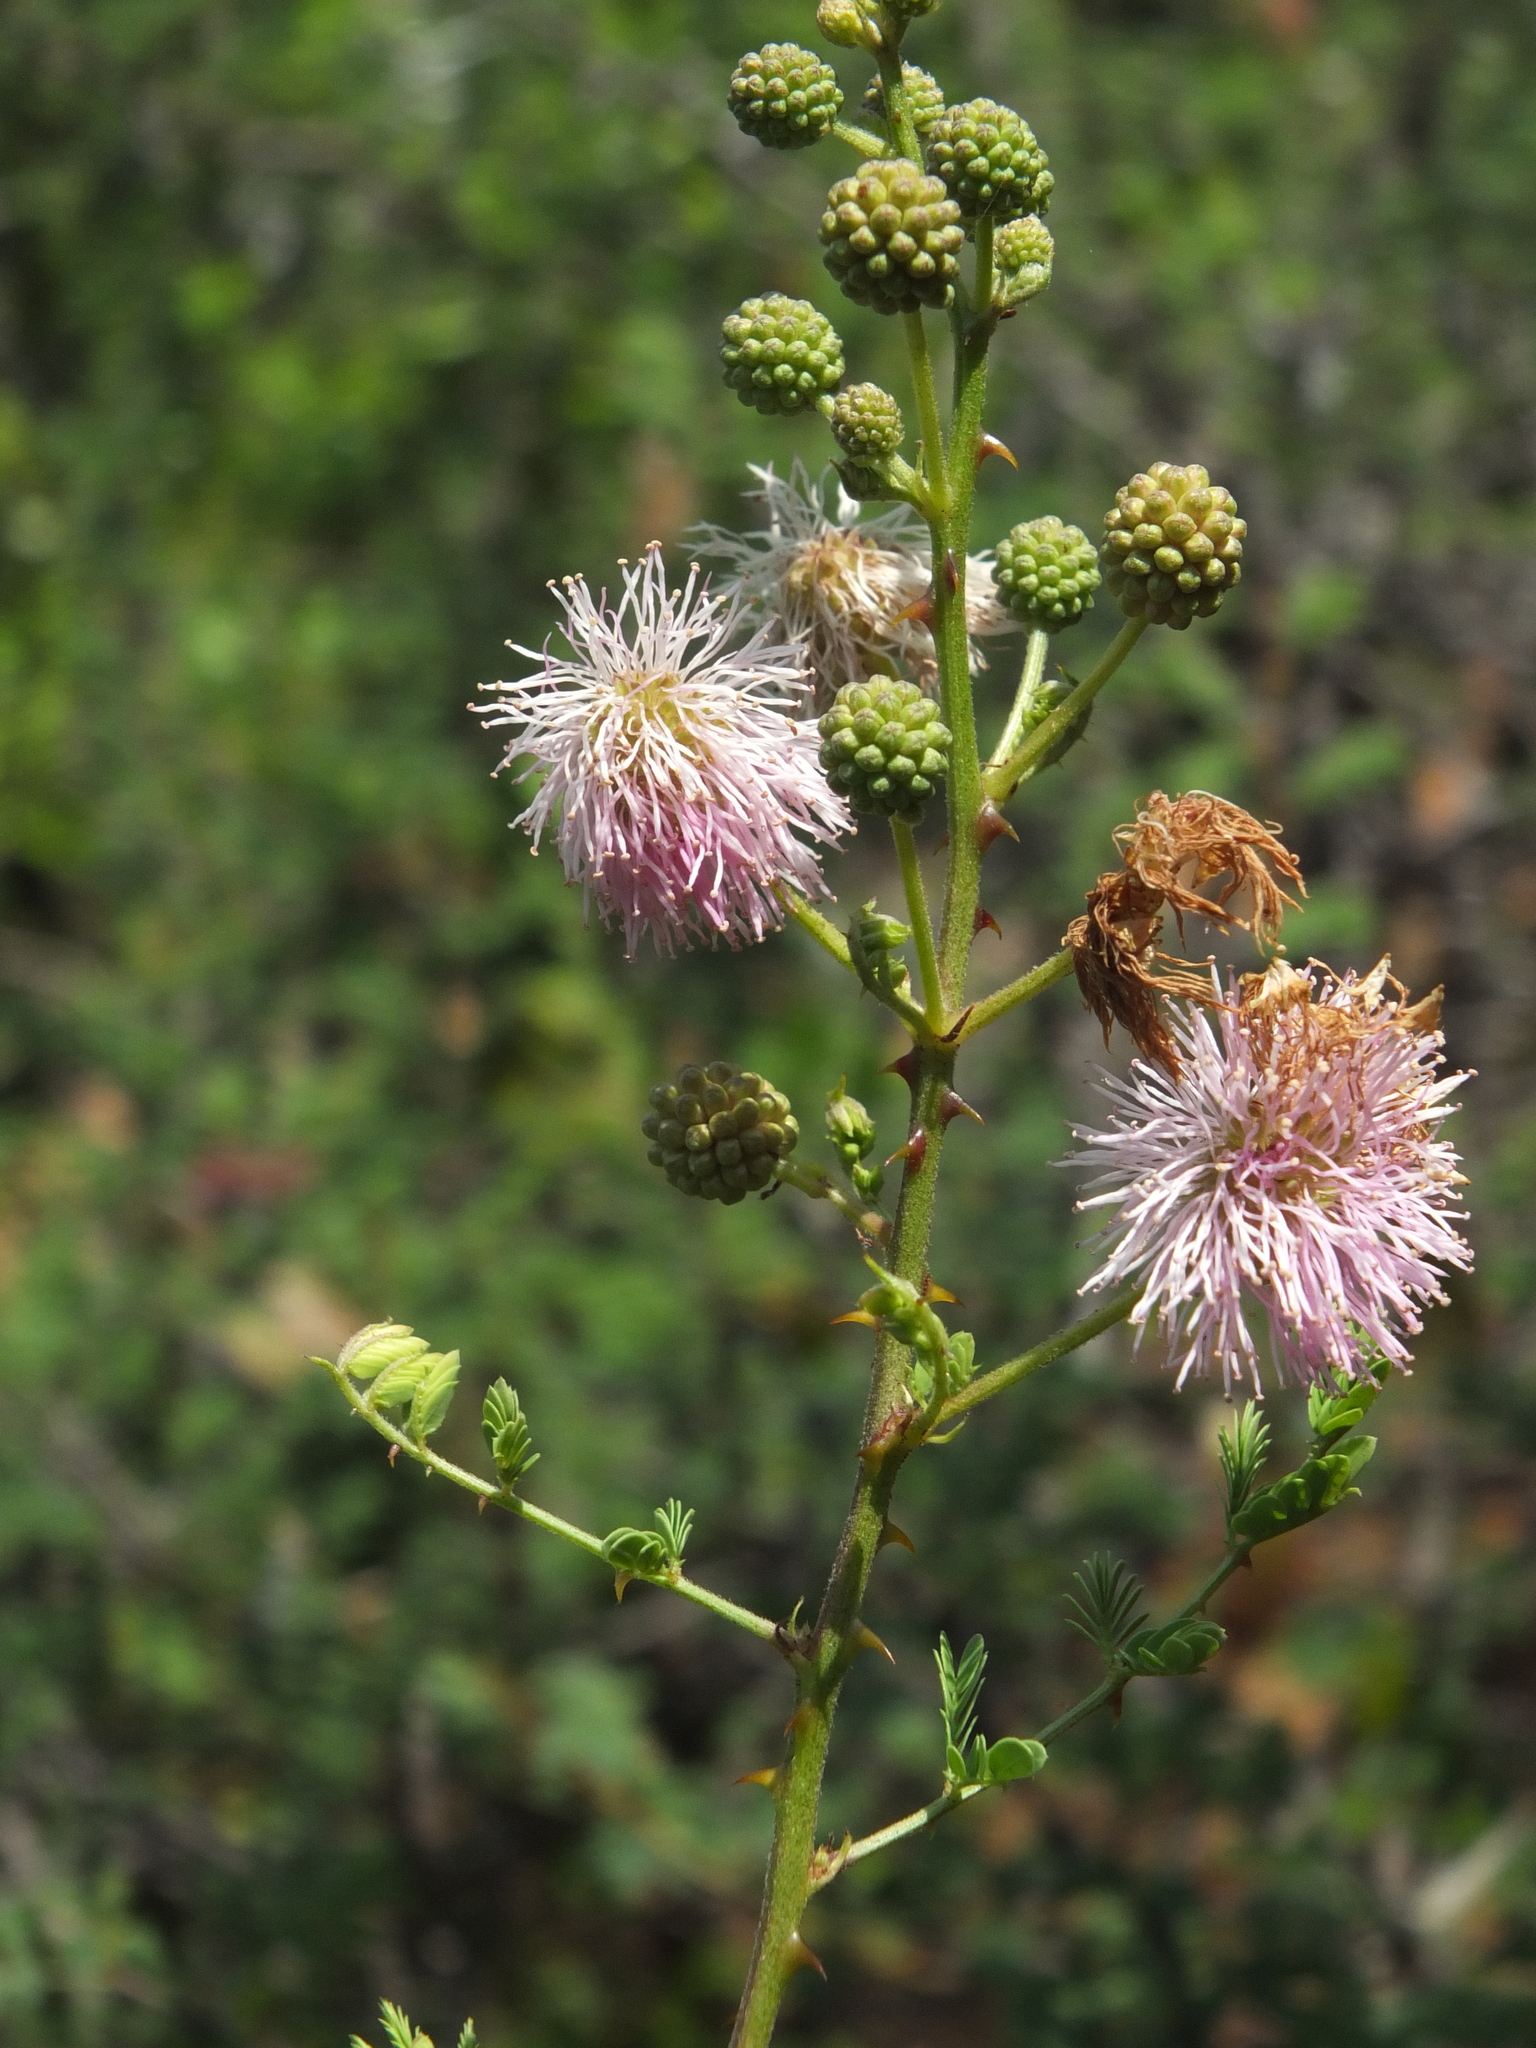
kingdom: Plantae
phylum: Tracheophyta
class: Magnoliopsida
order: Fabales
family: Fabaceae
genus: Mimosa
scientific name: Mimosa rubicaulis
